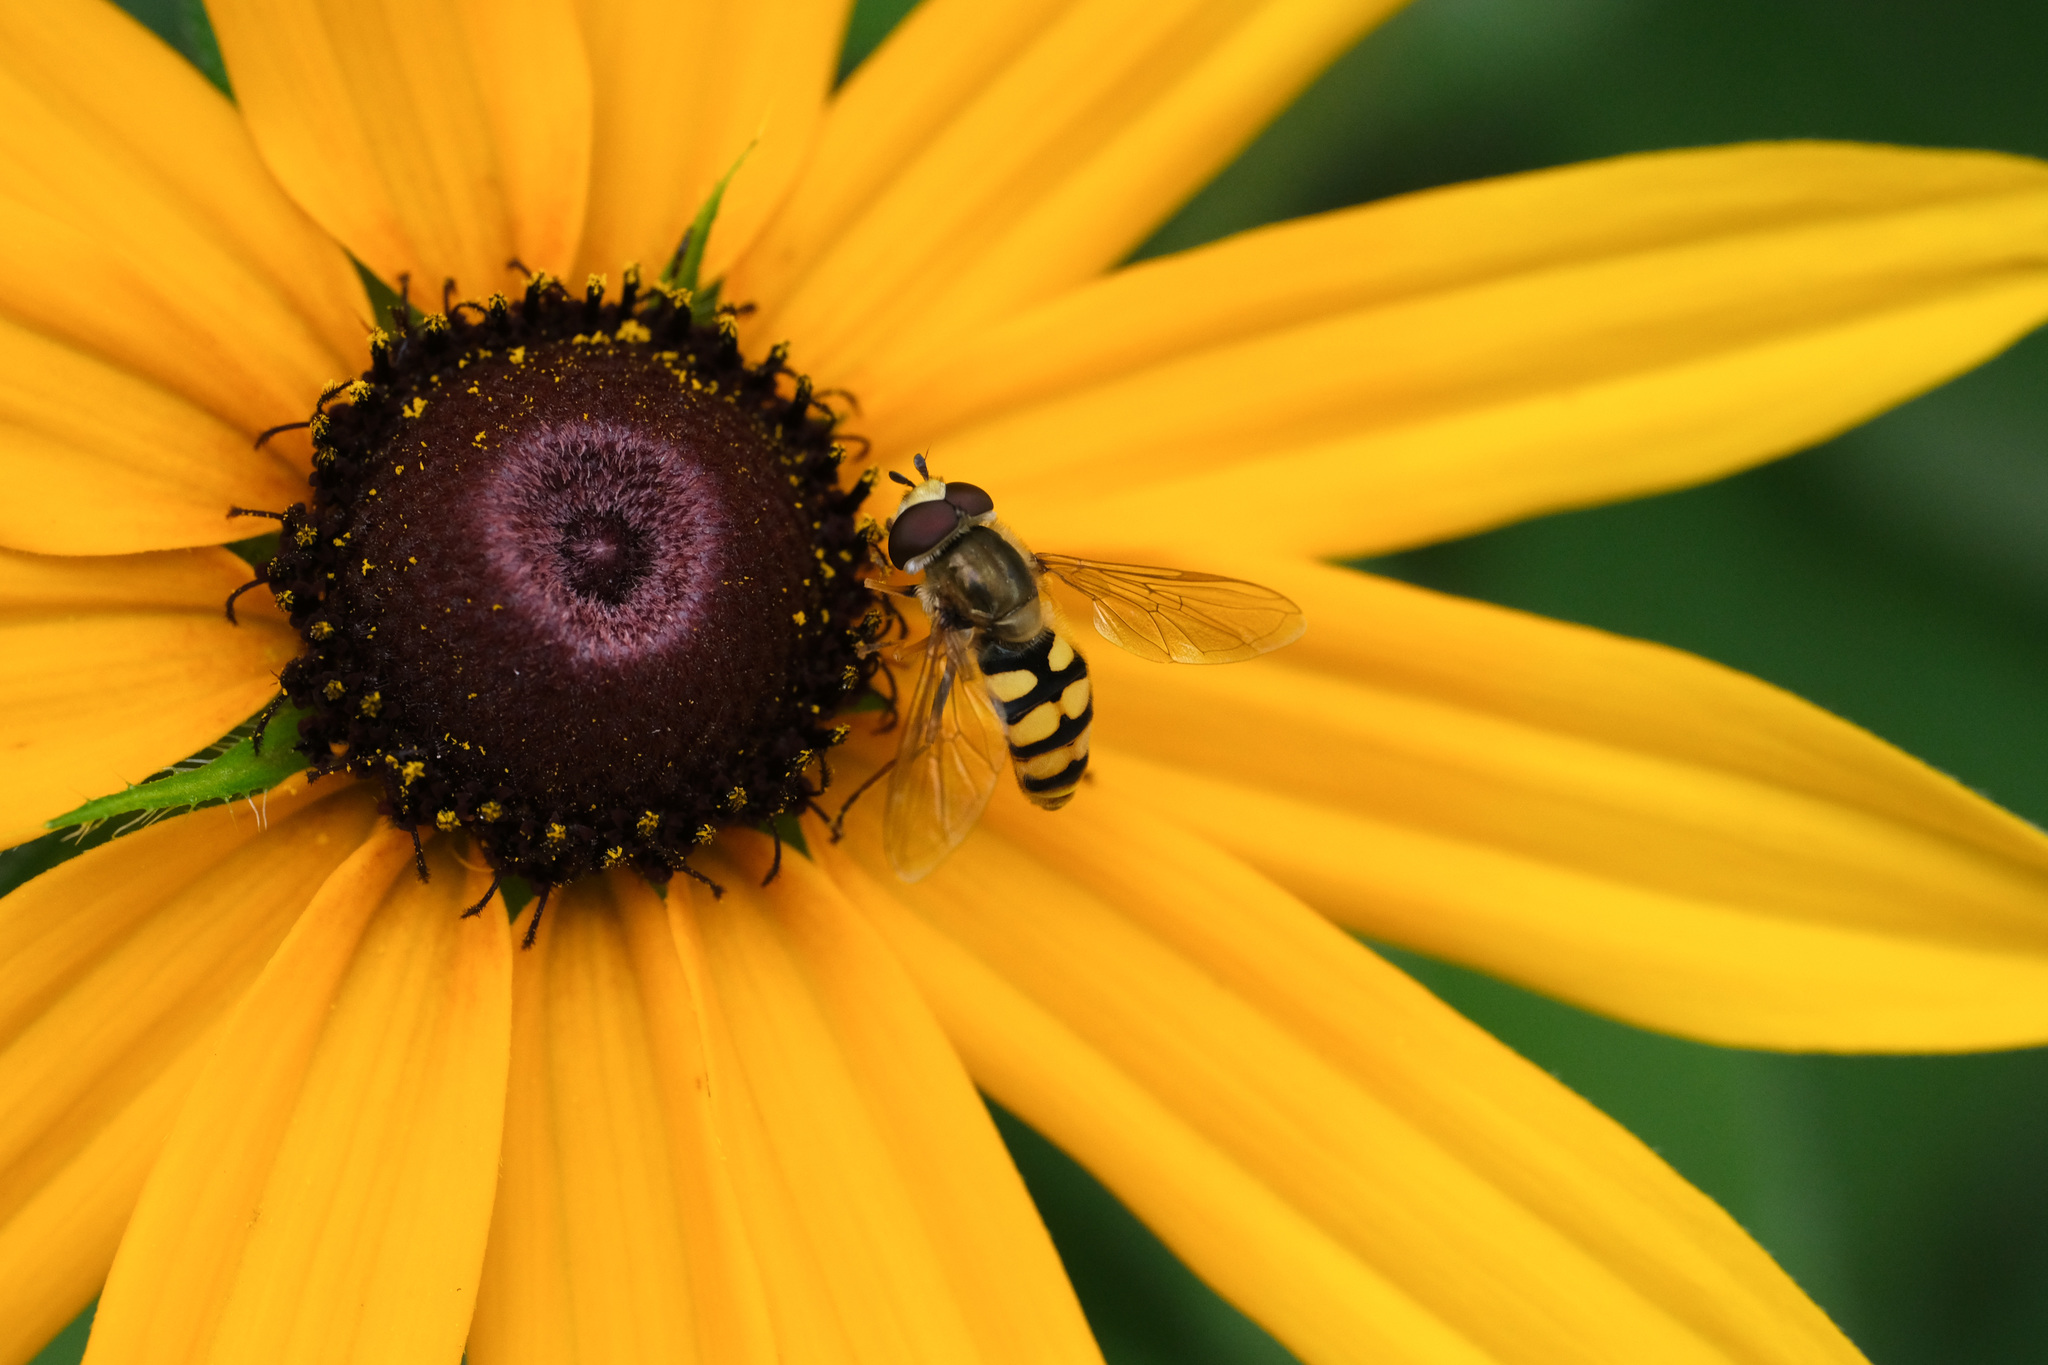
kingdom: Animalia
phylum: Arthropoda
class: Insecta
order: Diptera
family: Syrphidae
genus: Eupeodes
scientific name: Eupeodes corollae
